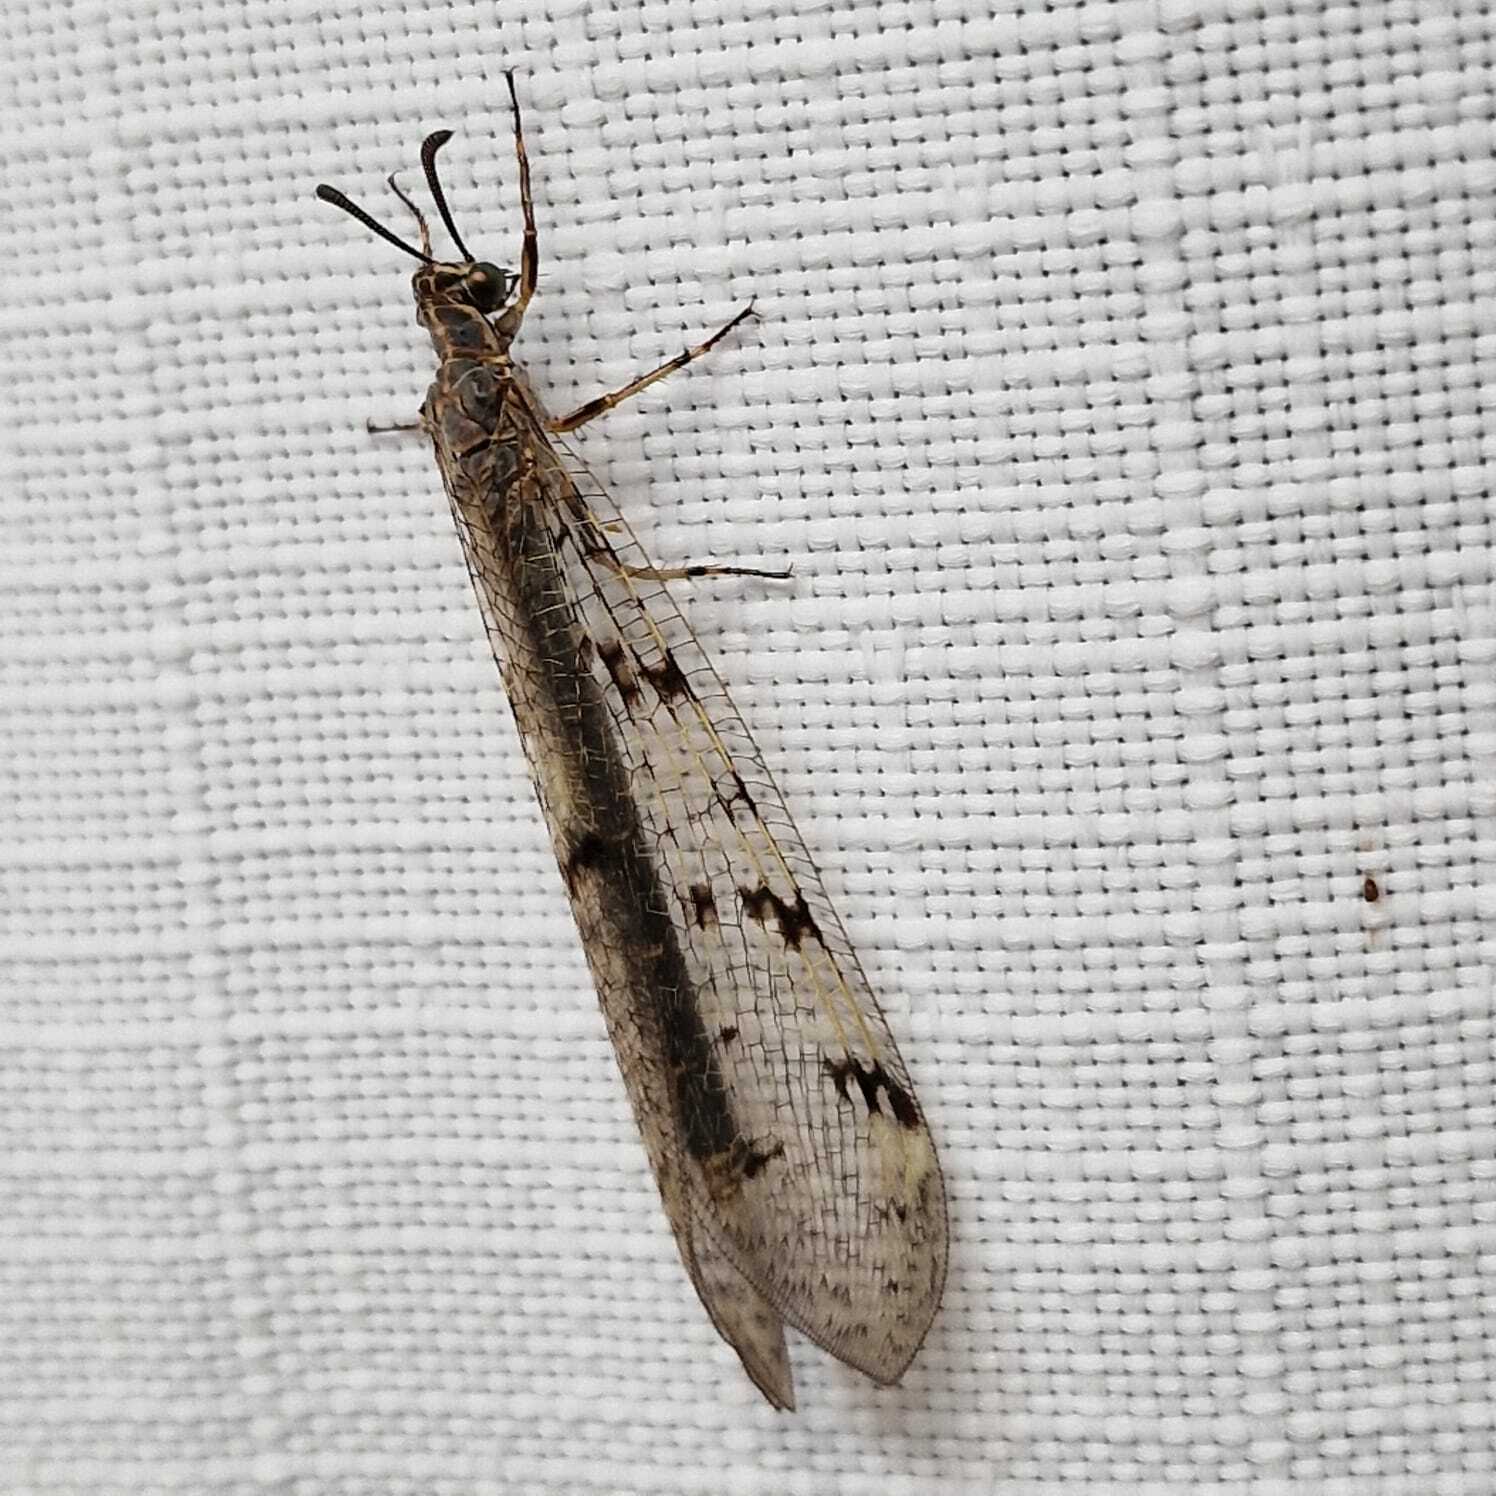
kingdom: Animalia
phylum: Arthropoda
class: Insecta
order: Neuroptera
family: Myrmeleontidae
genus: Euroleon
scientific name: Euroleon nostras
